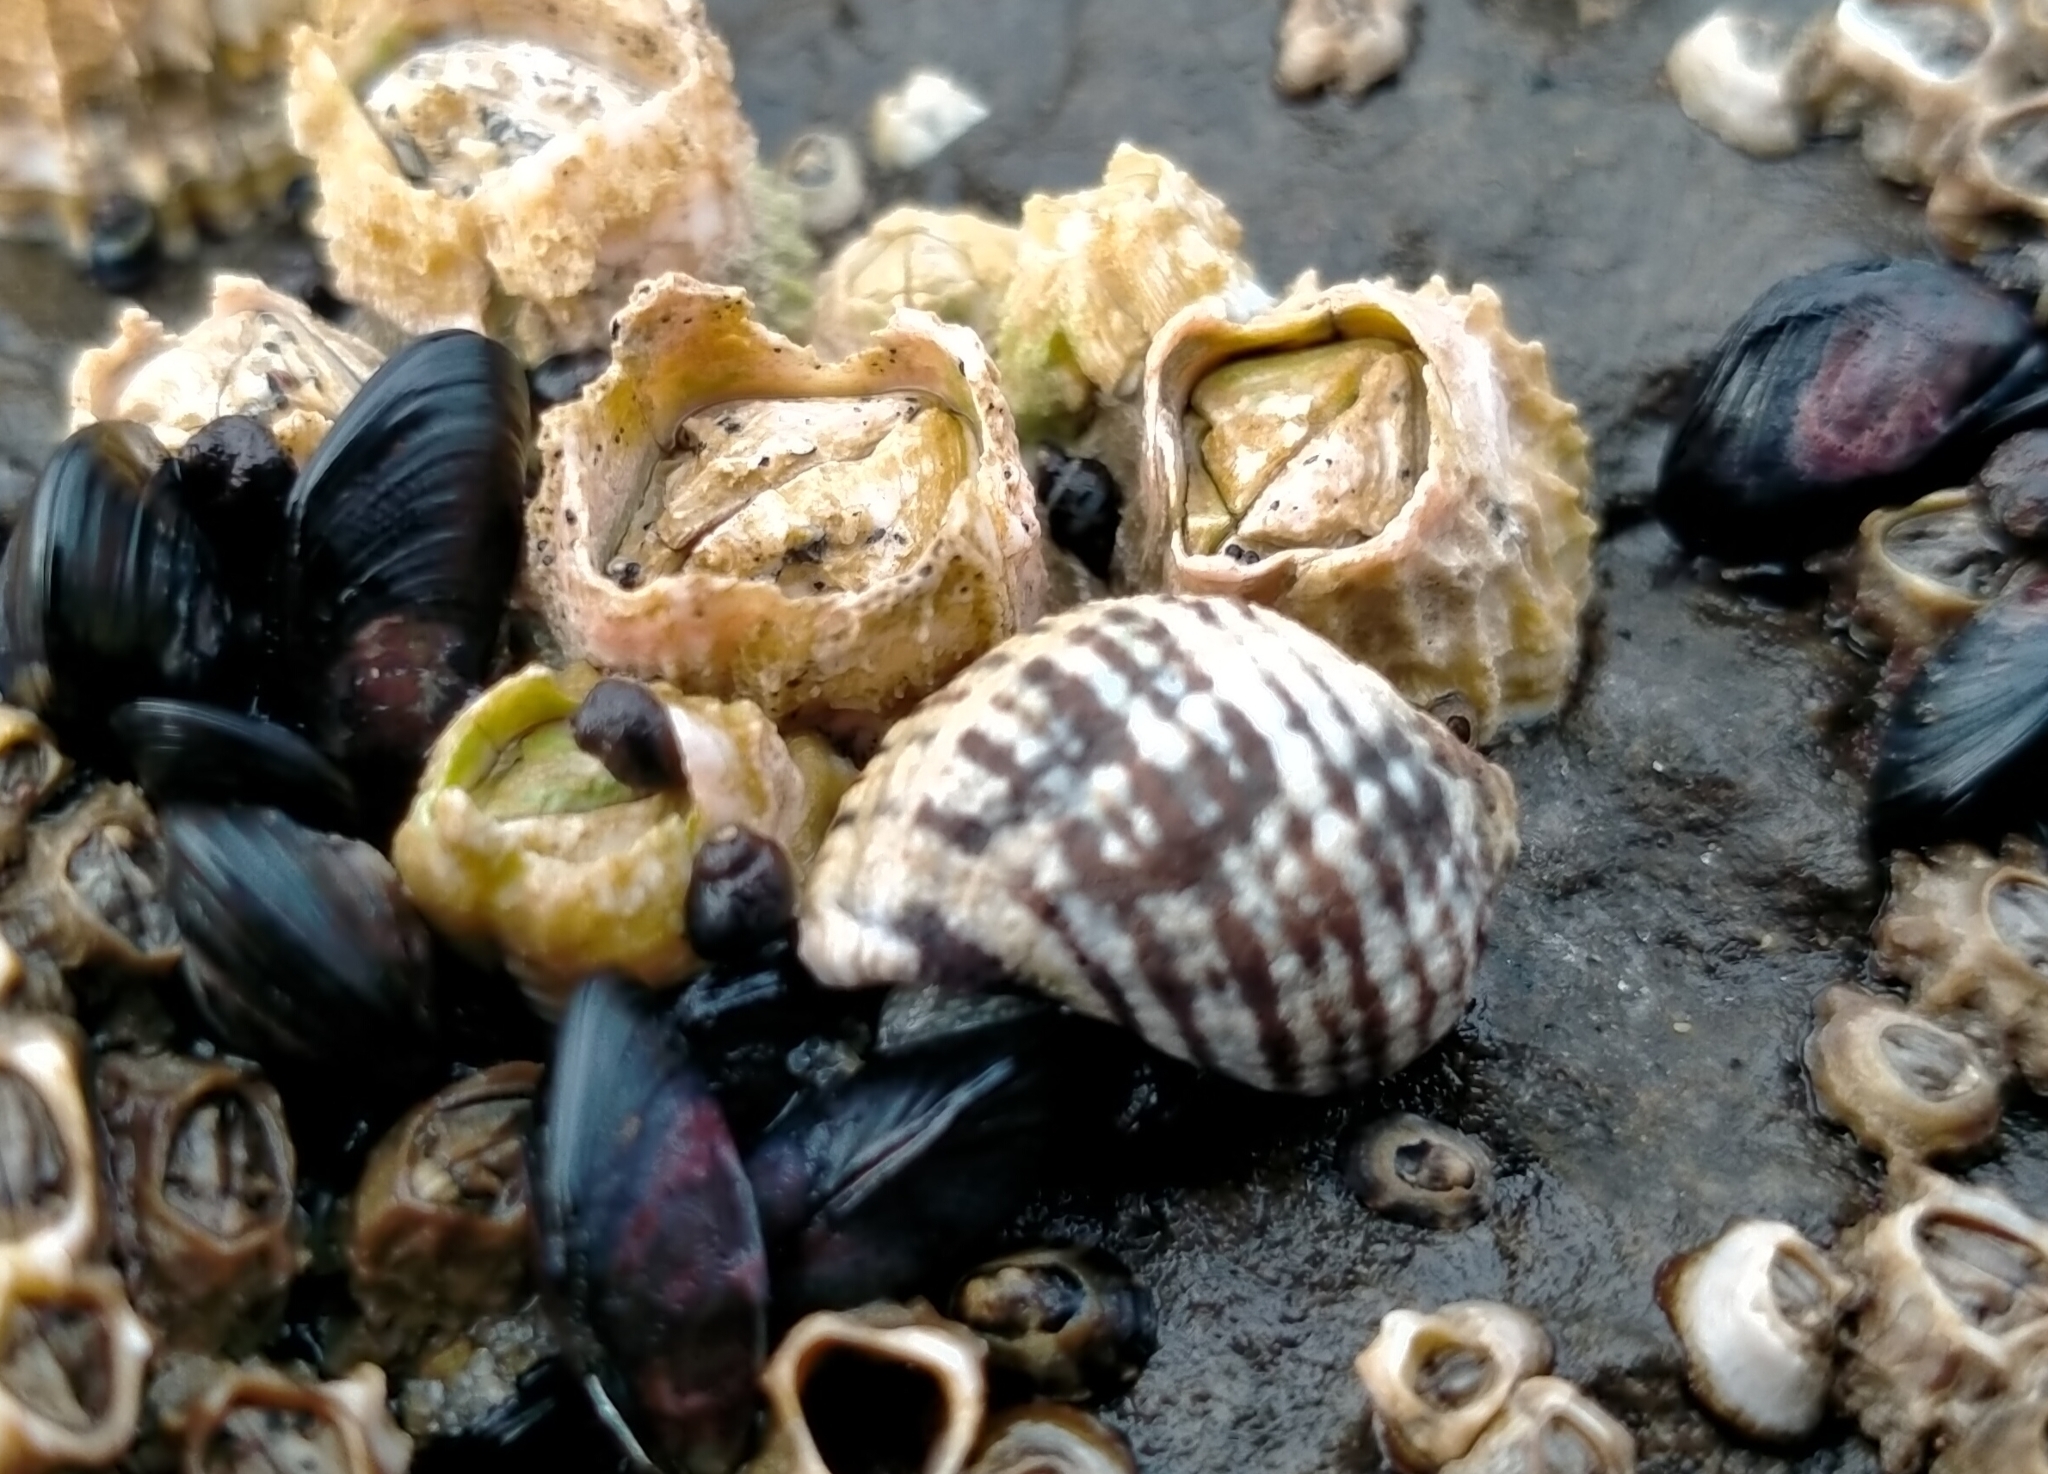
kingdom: Animalia
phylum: Mollusca
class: Gastropoda
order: Neogastropoda
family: Muricidae
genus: Haustrum
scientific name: Haustrum albomarginatum
